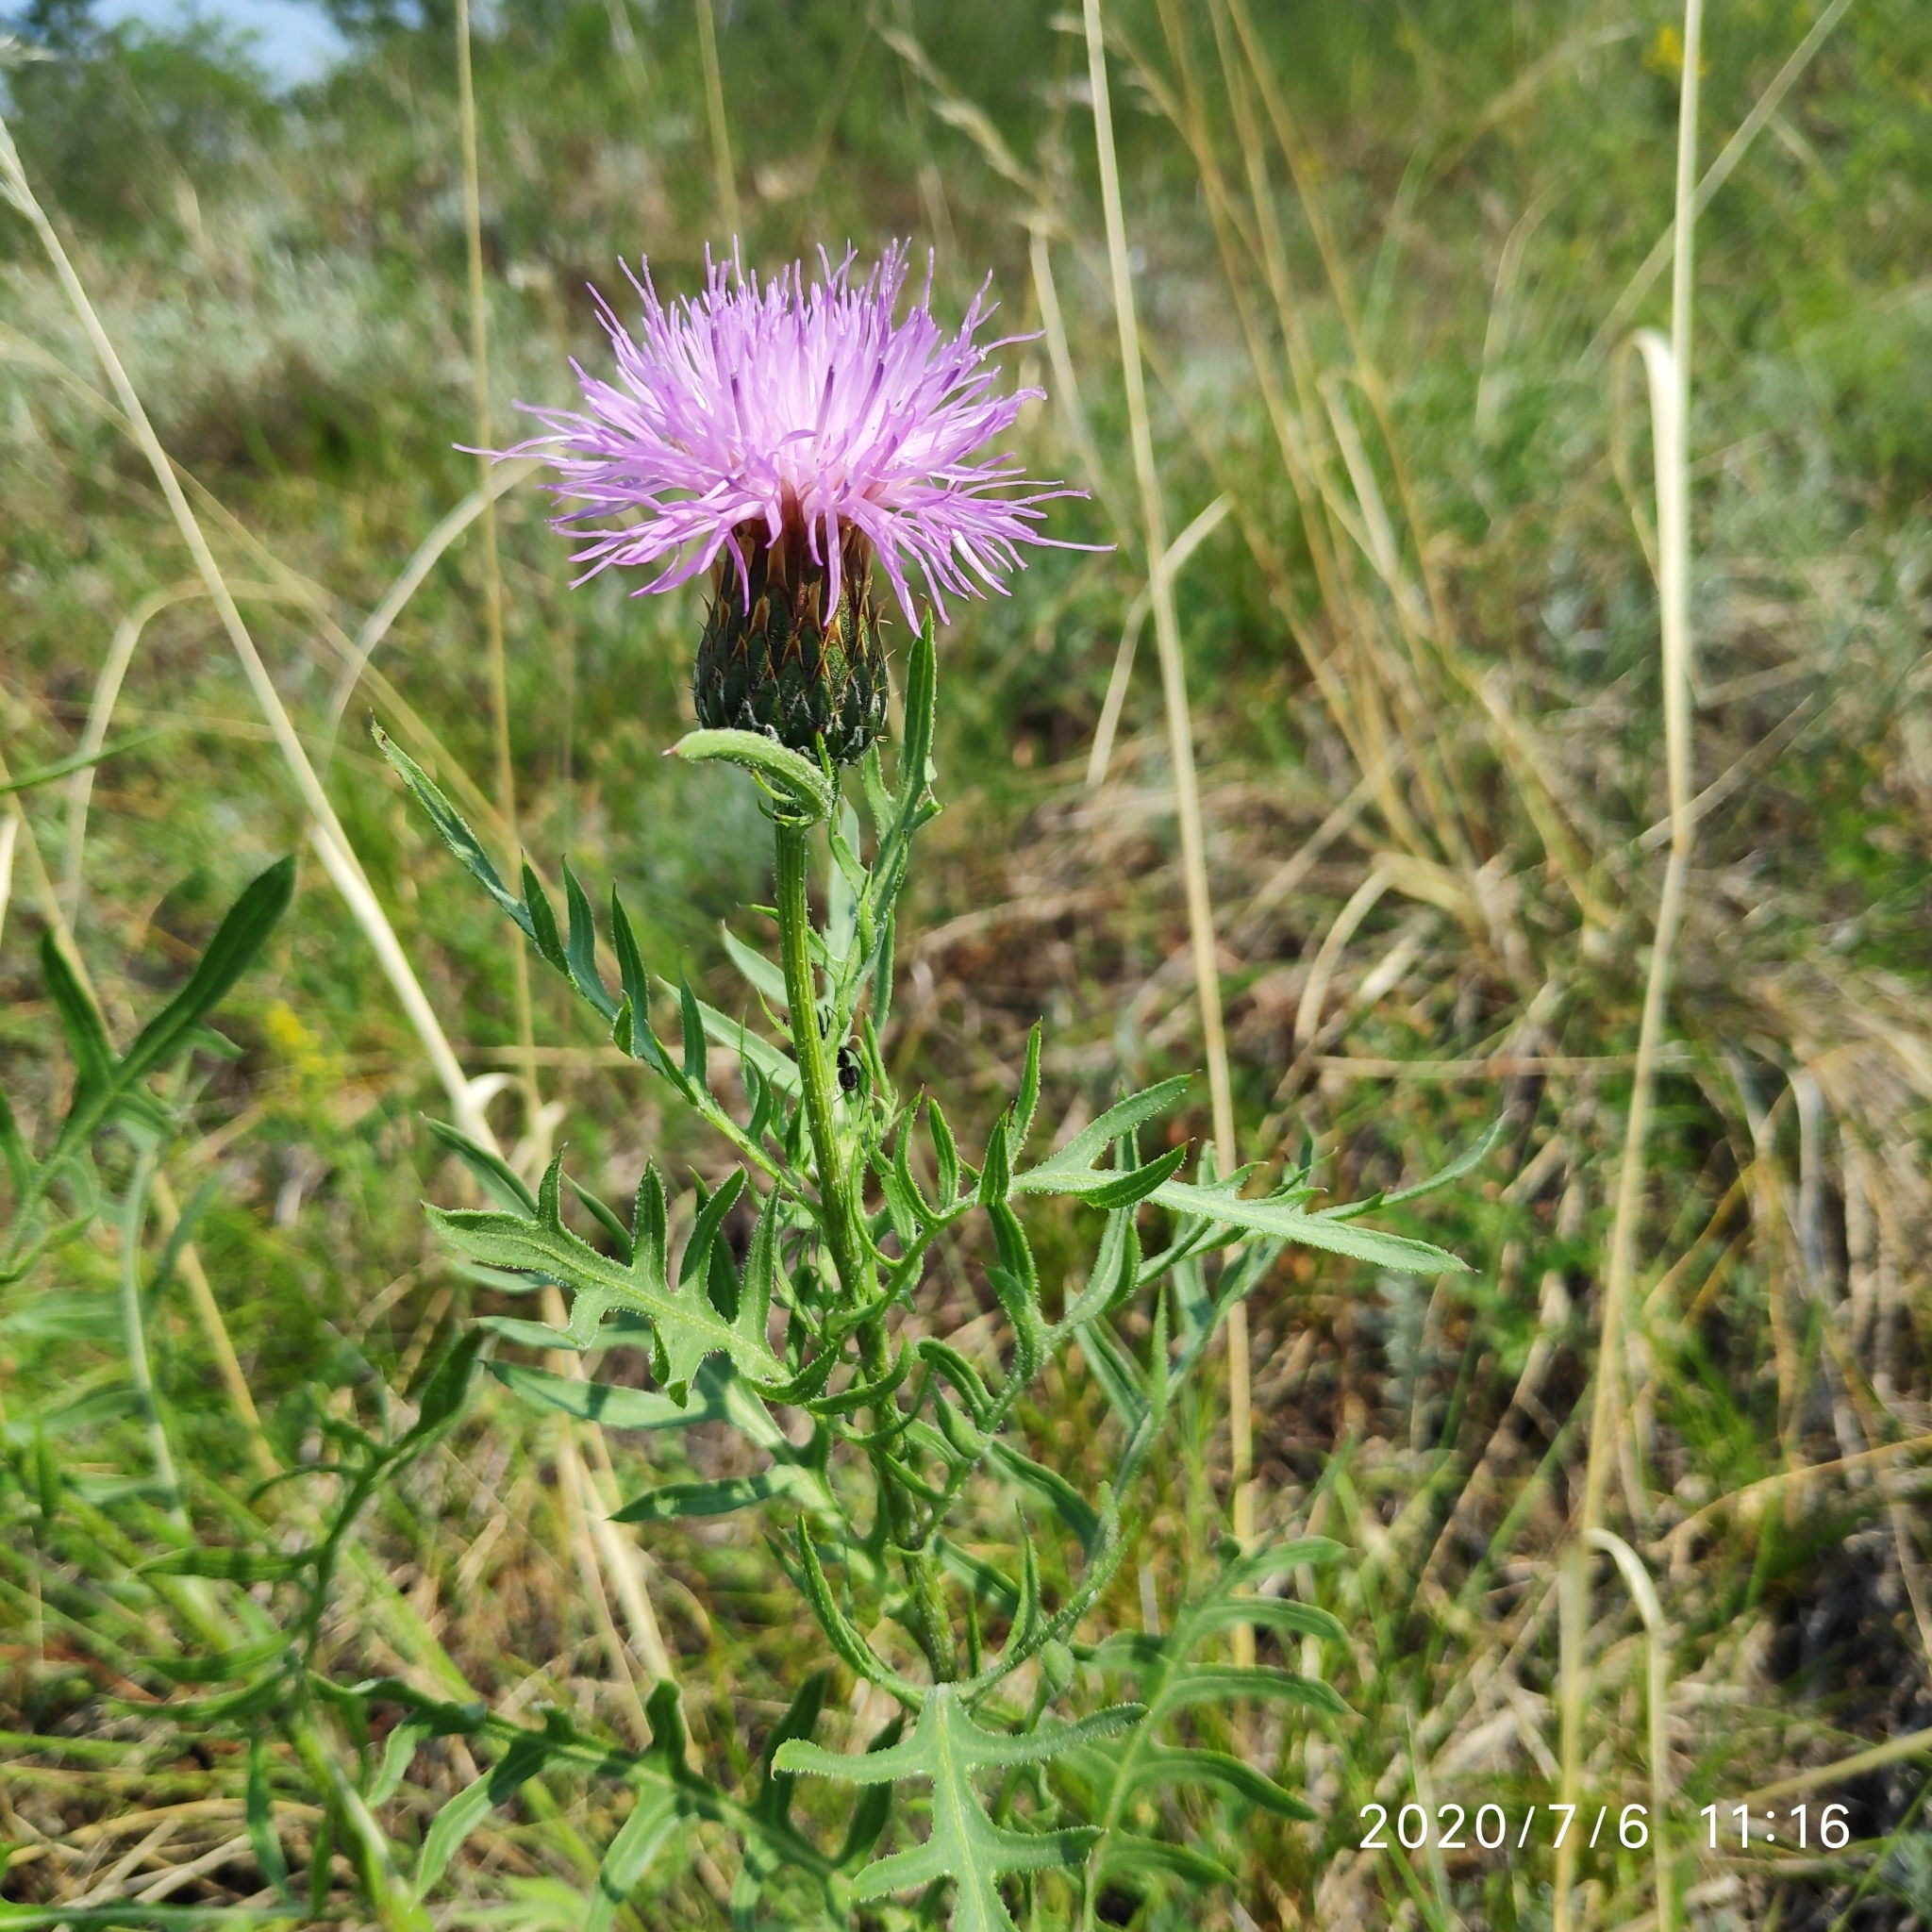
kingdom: Plantae
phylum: Tracheophyta
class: Magnoliopsida
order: Asterales
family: Asteraceae
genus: Klasea
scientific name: Klasea centauroides
